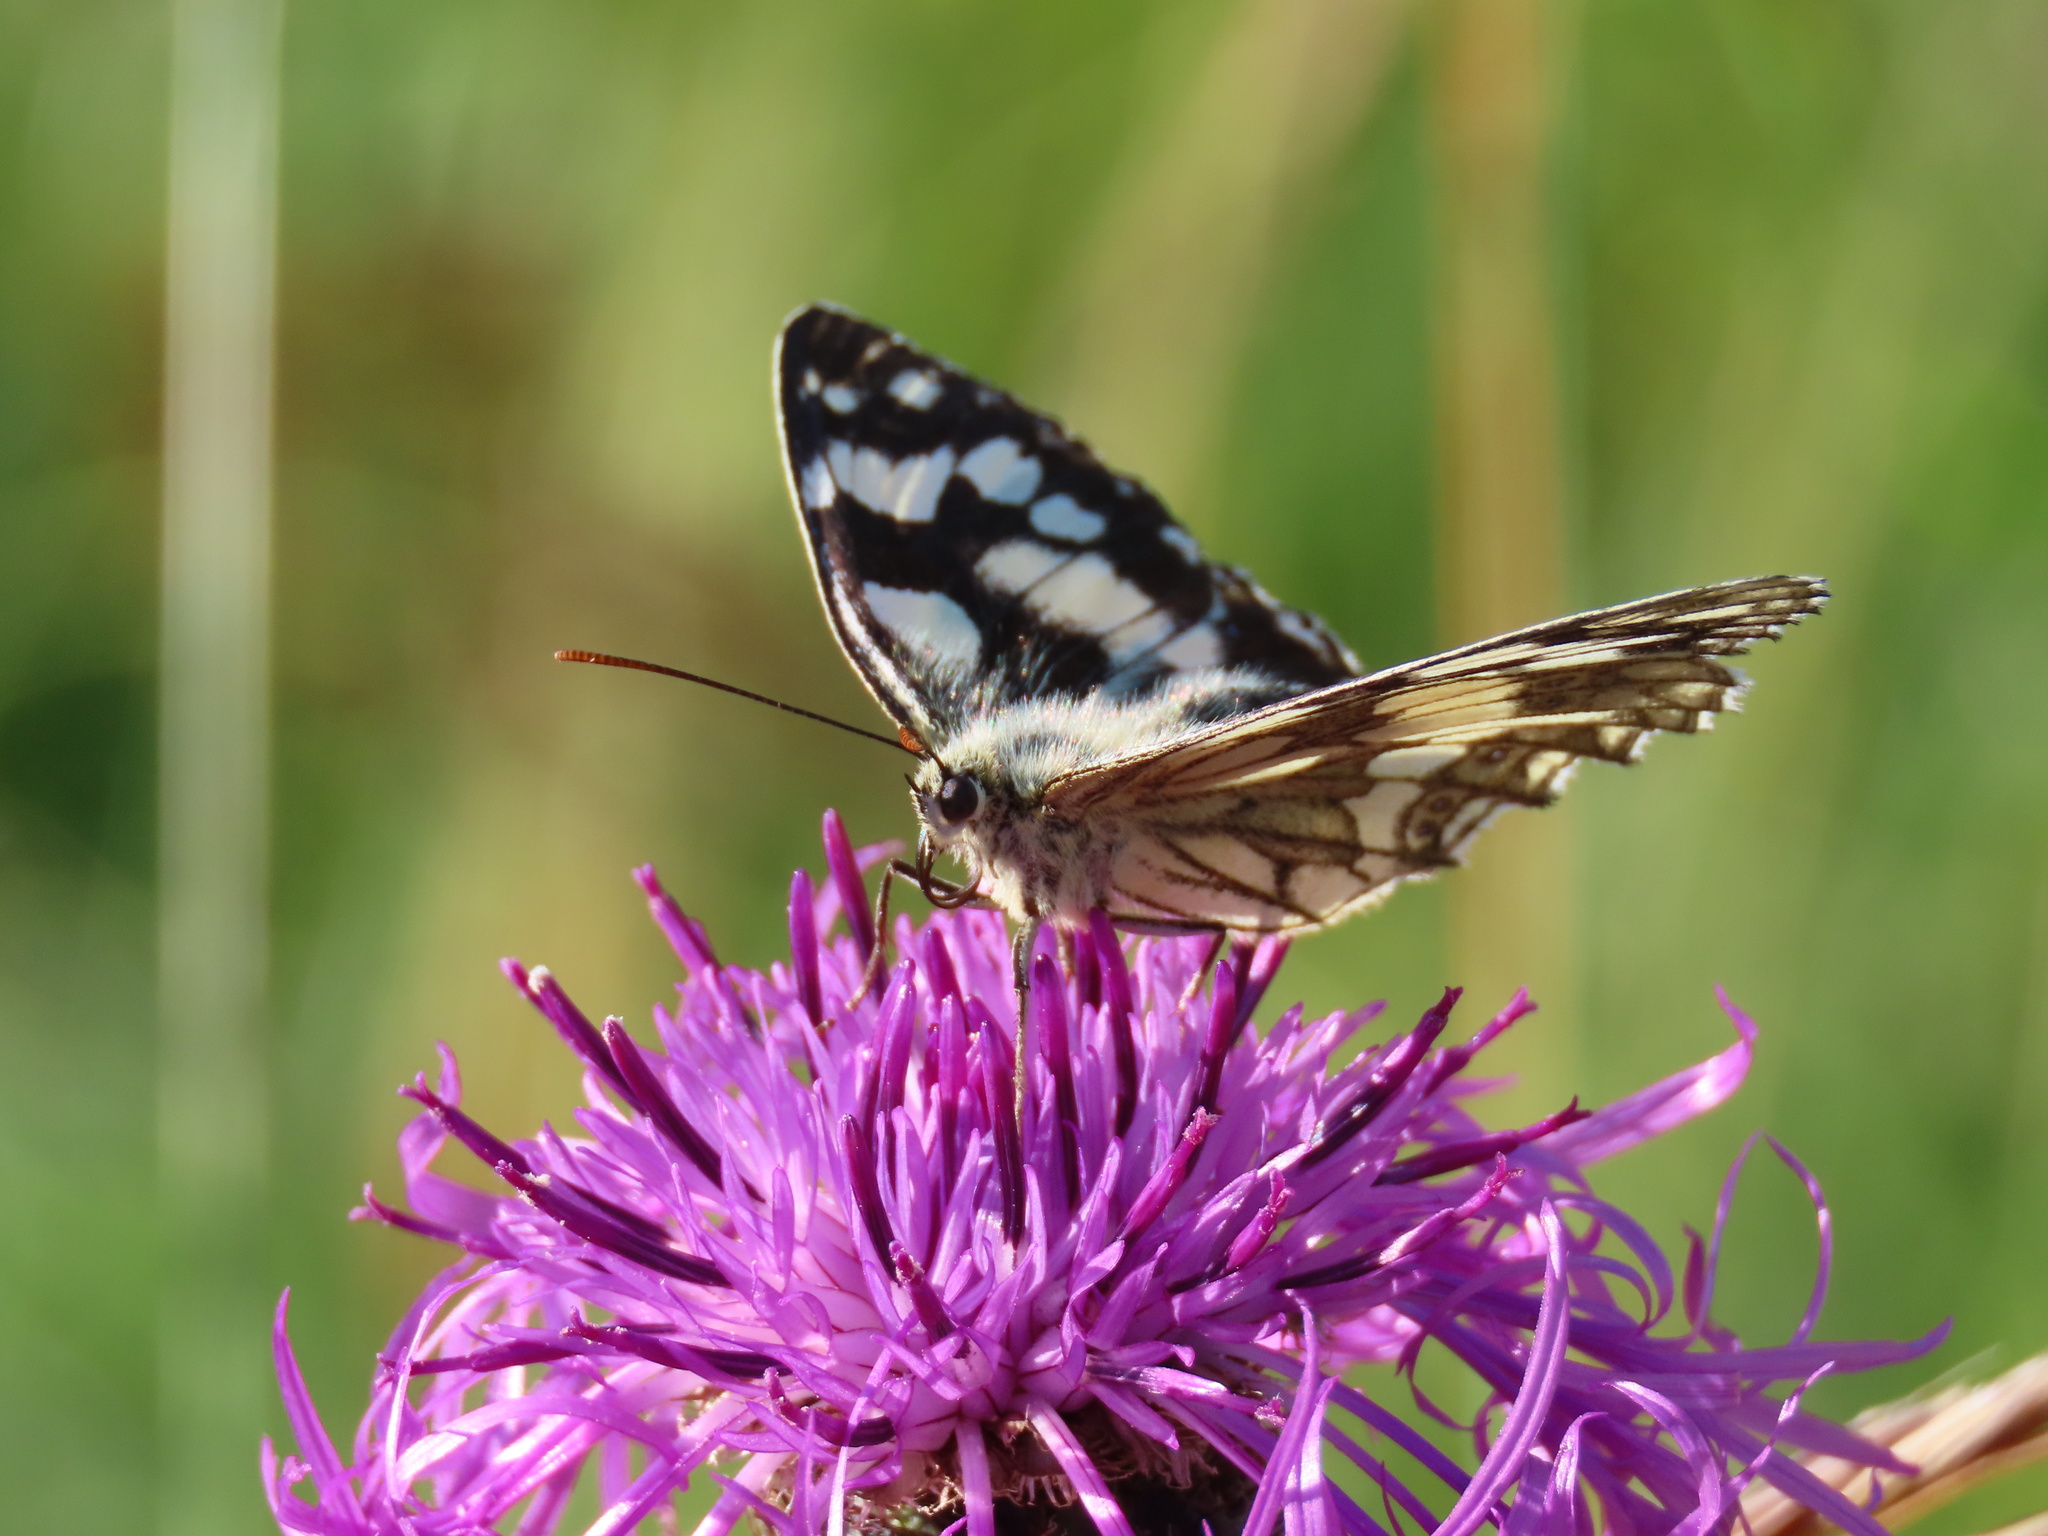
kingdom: Animalia
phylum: Arthropoda
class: Insecta
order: Lepidoptera
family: Nymphalidae
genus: Melanargia
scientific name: Melanargia galathea
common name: Marbled white
